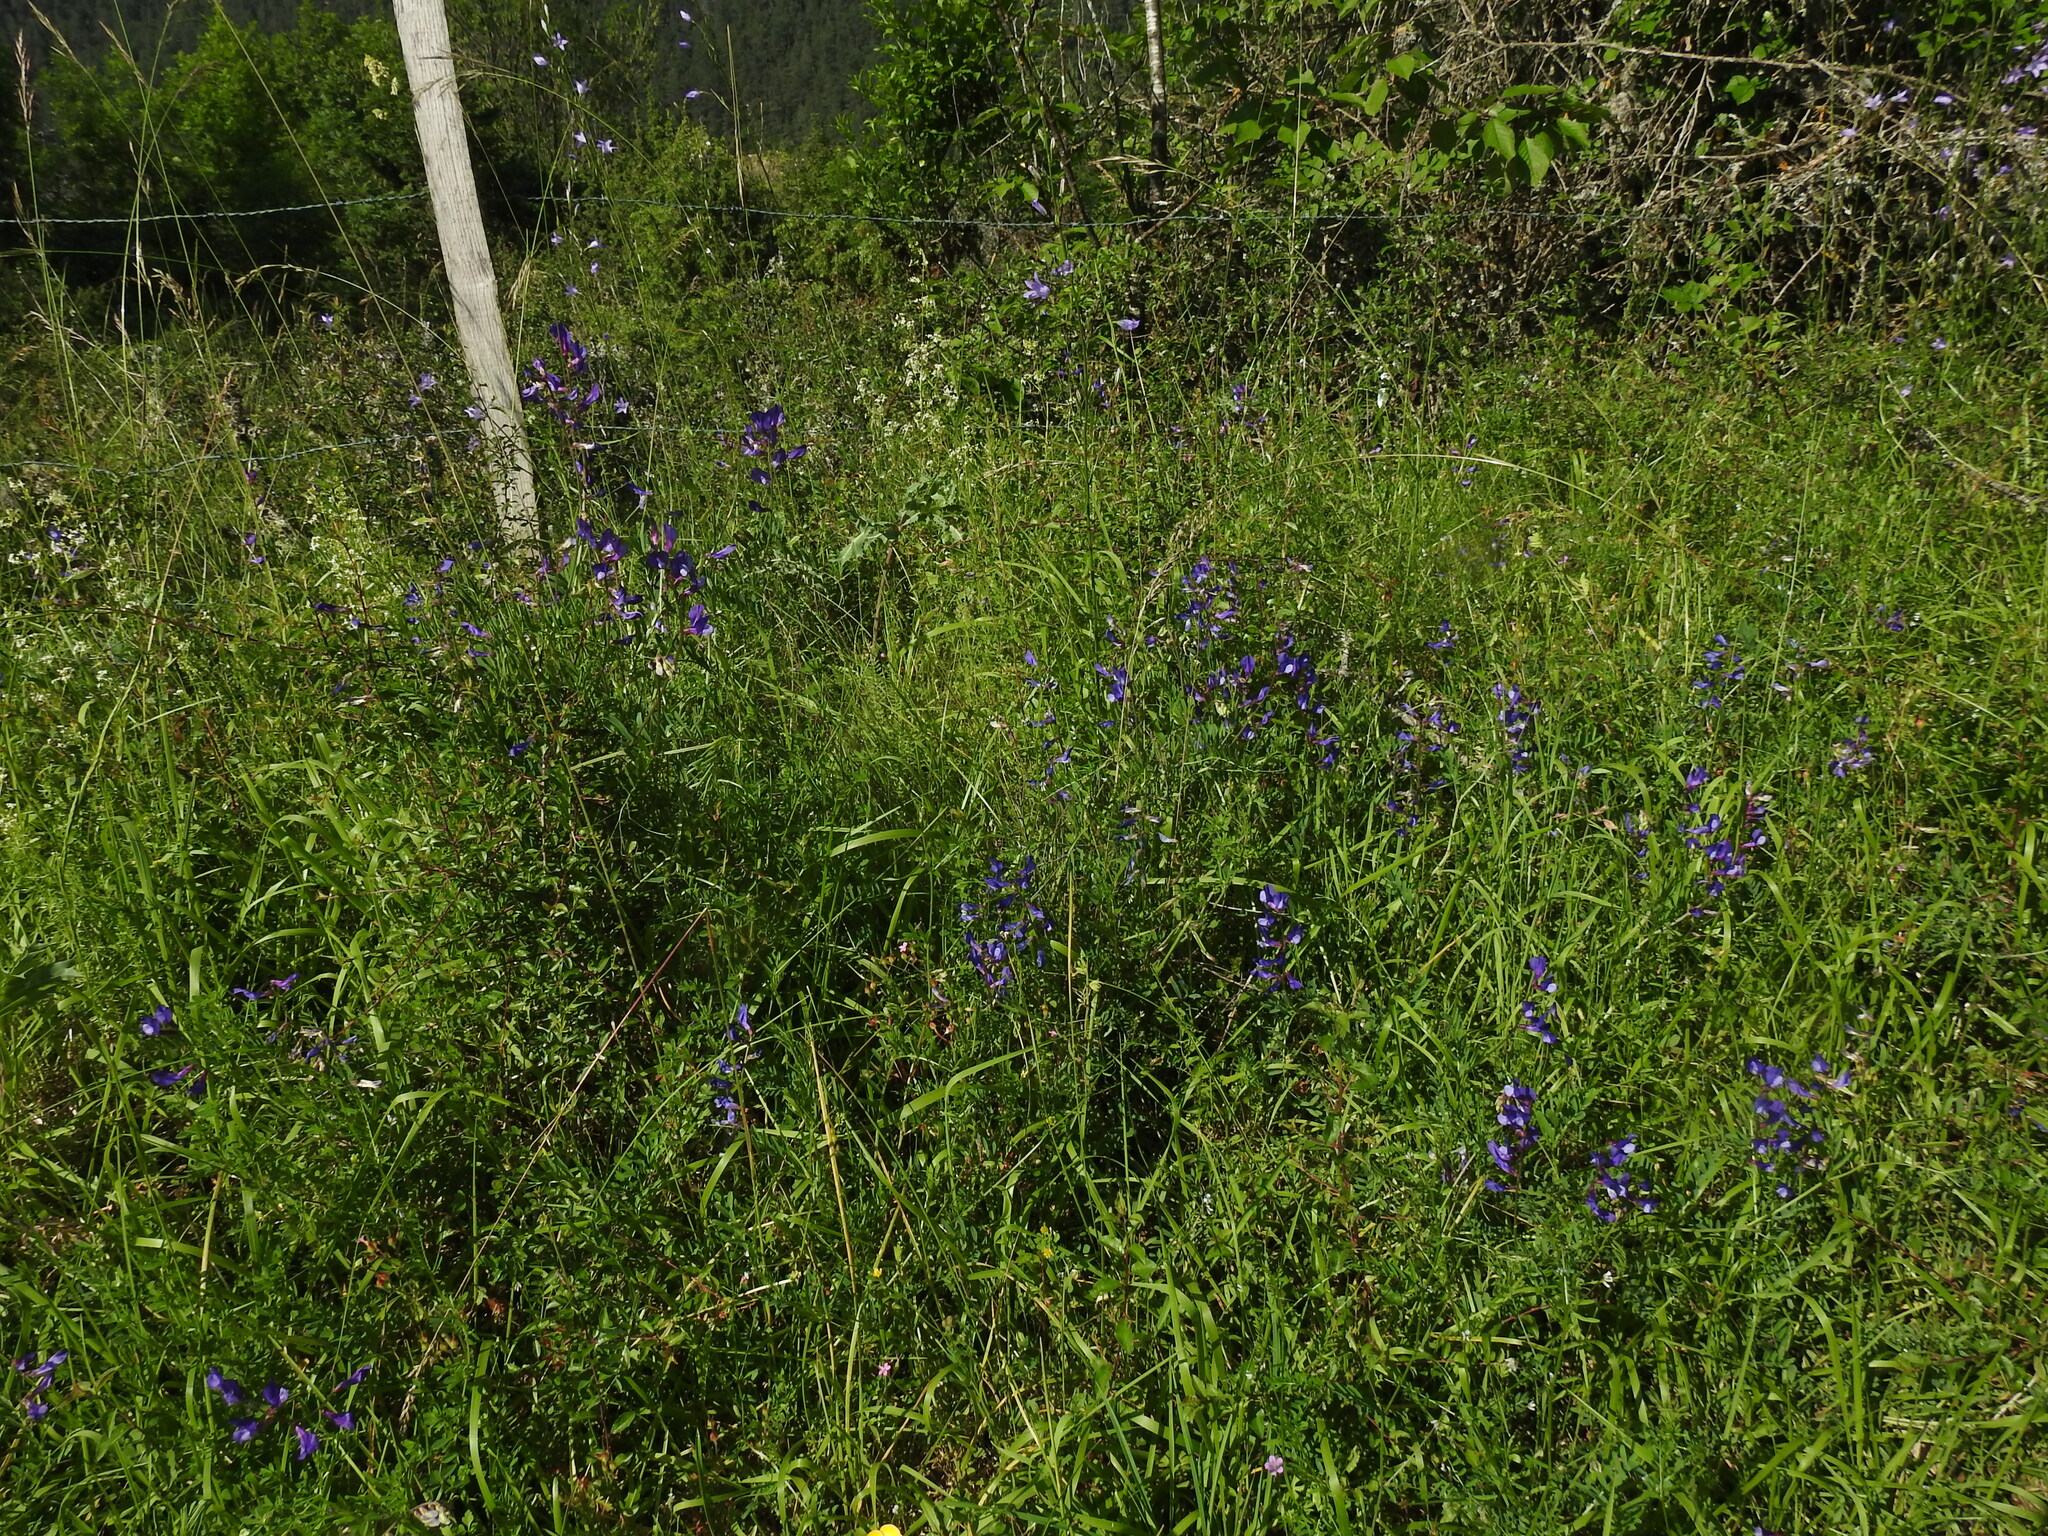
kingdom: Plantae
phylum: Tracheophyta
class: Magnoliopsida
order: Fabales
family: Fabaceae
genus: Vicia
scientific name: Vicia onobrychioides
